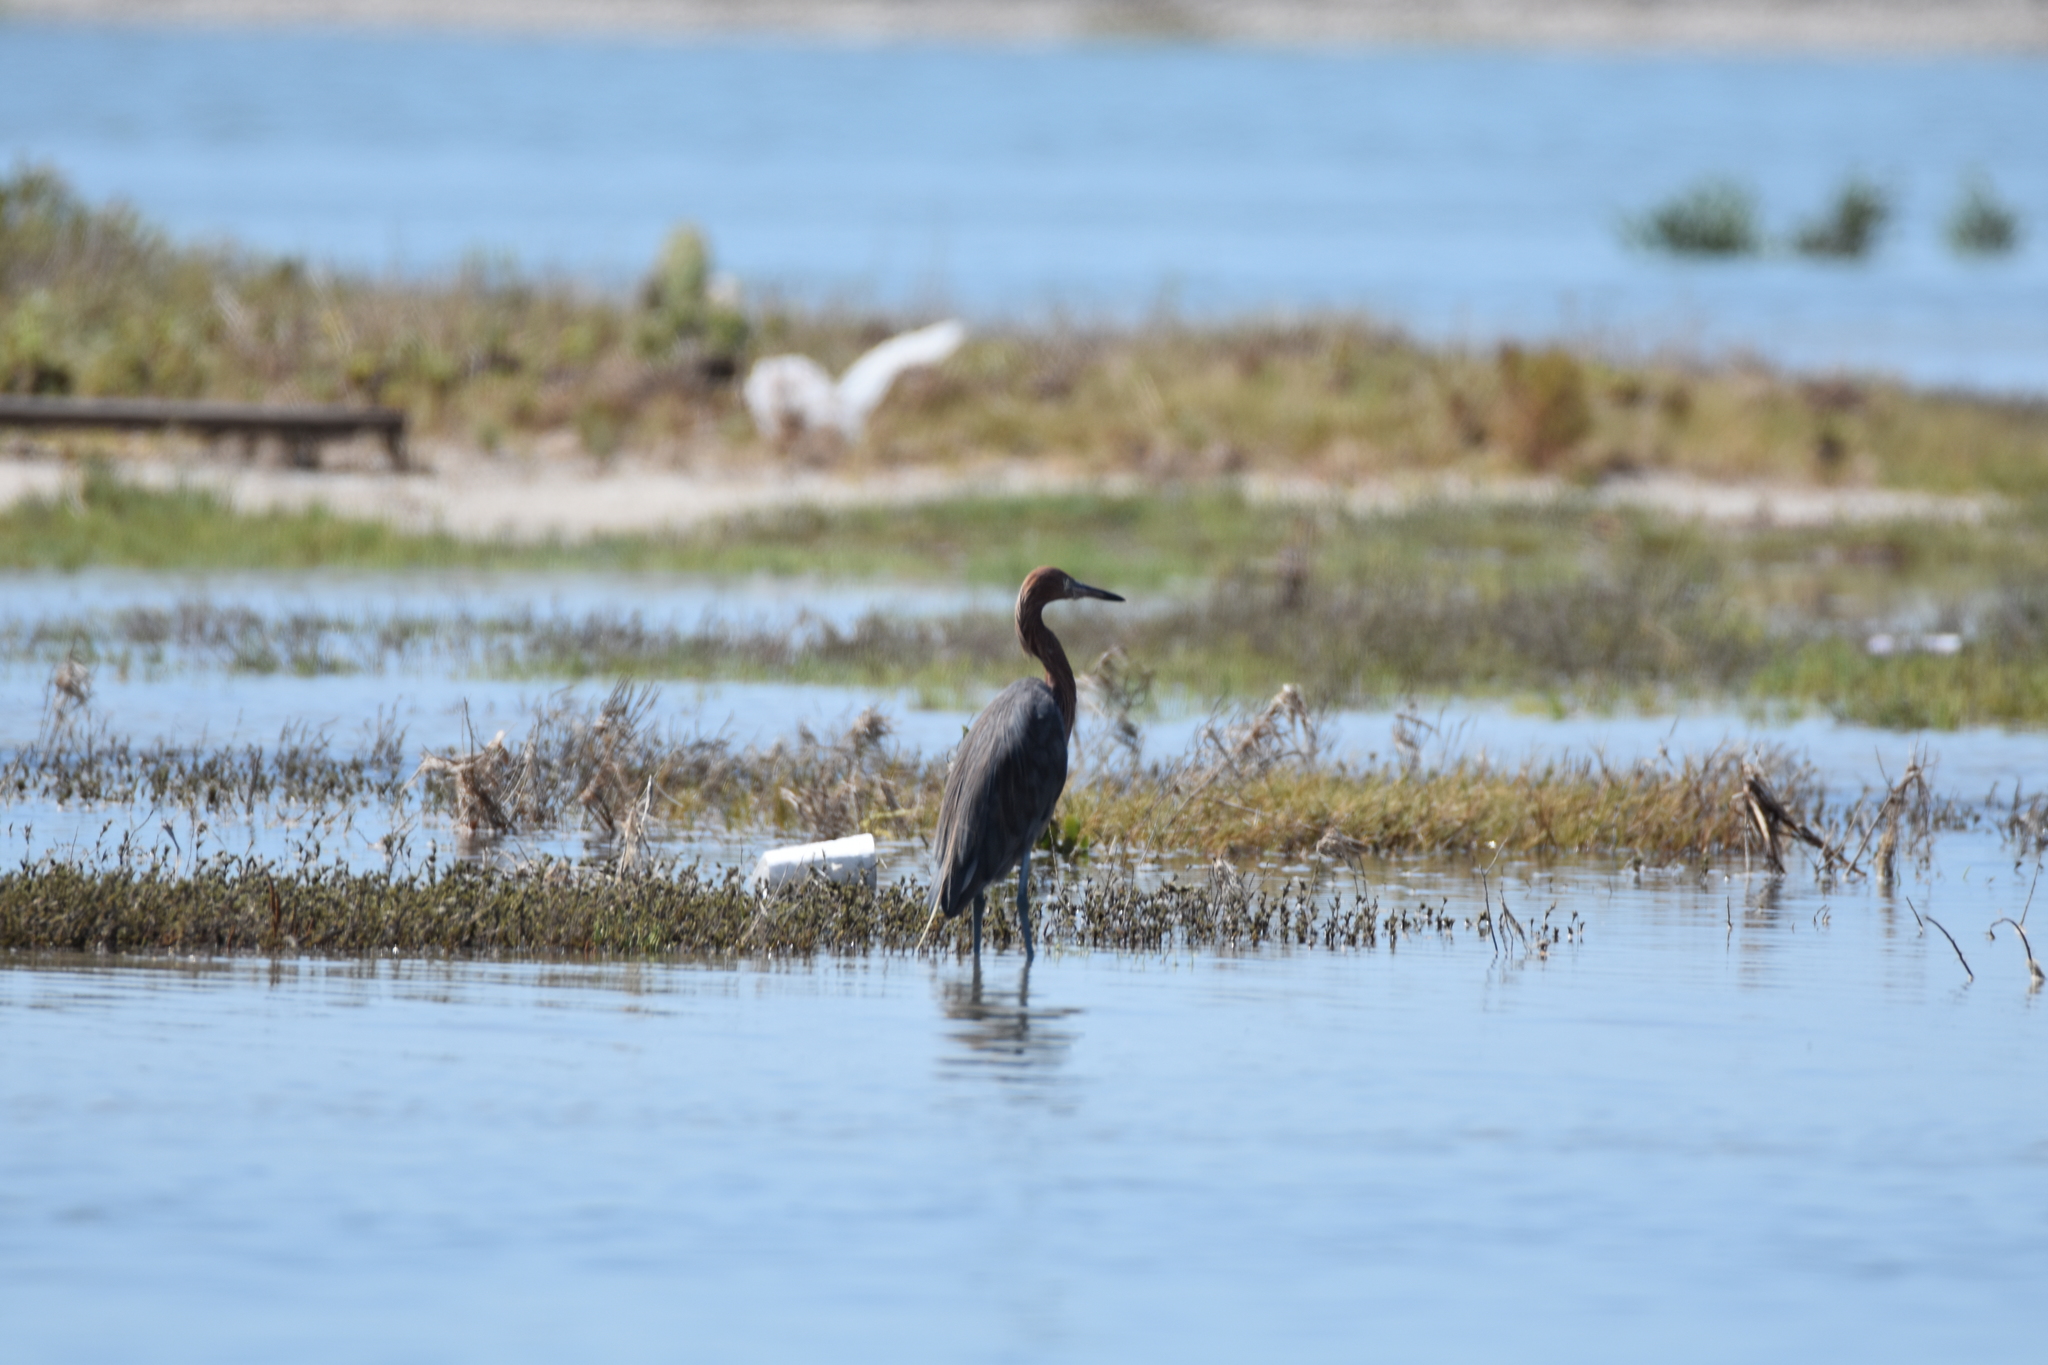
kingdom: Animalia
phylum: Chordata
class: Aves
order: Pelecaniformes
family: Ardeidae
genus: Egretta
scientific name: Egretta rufescens
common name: Reddish egret
